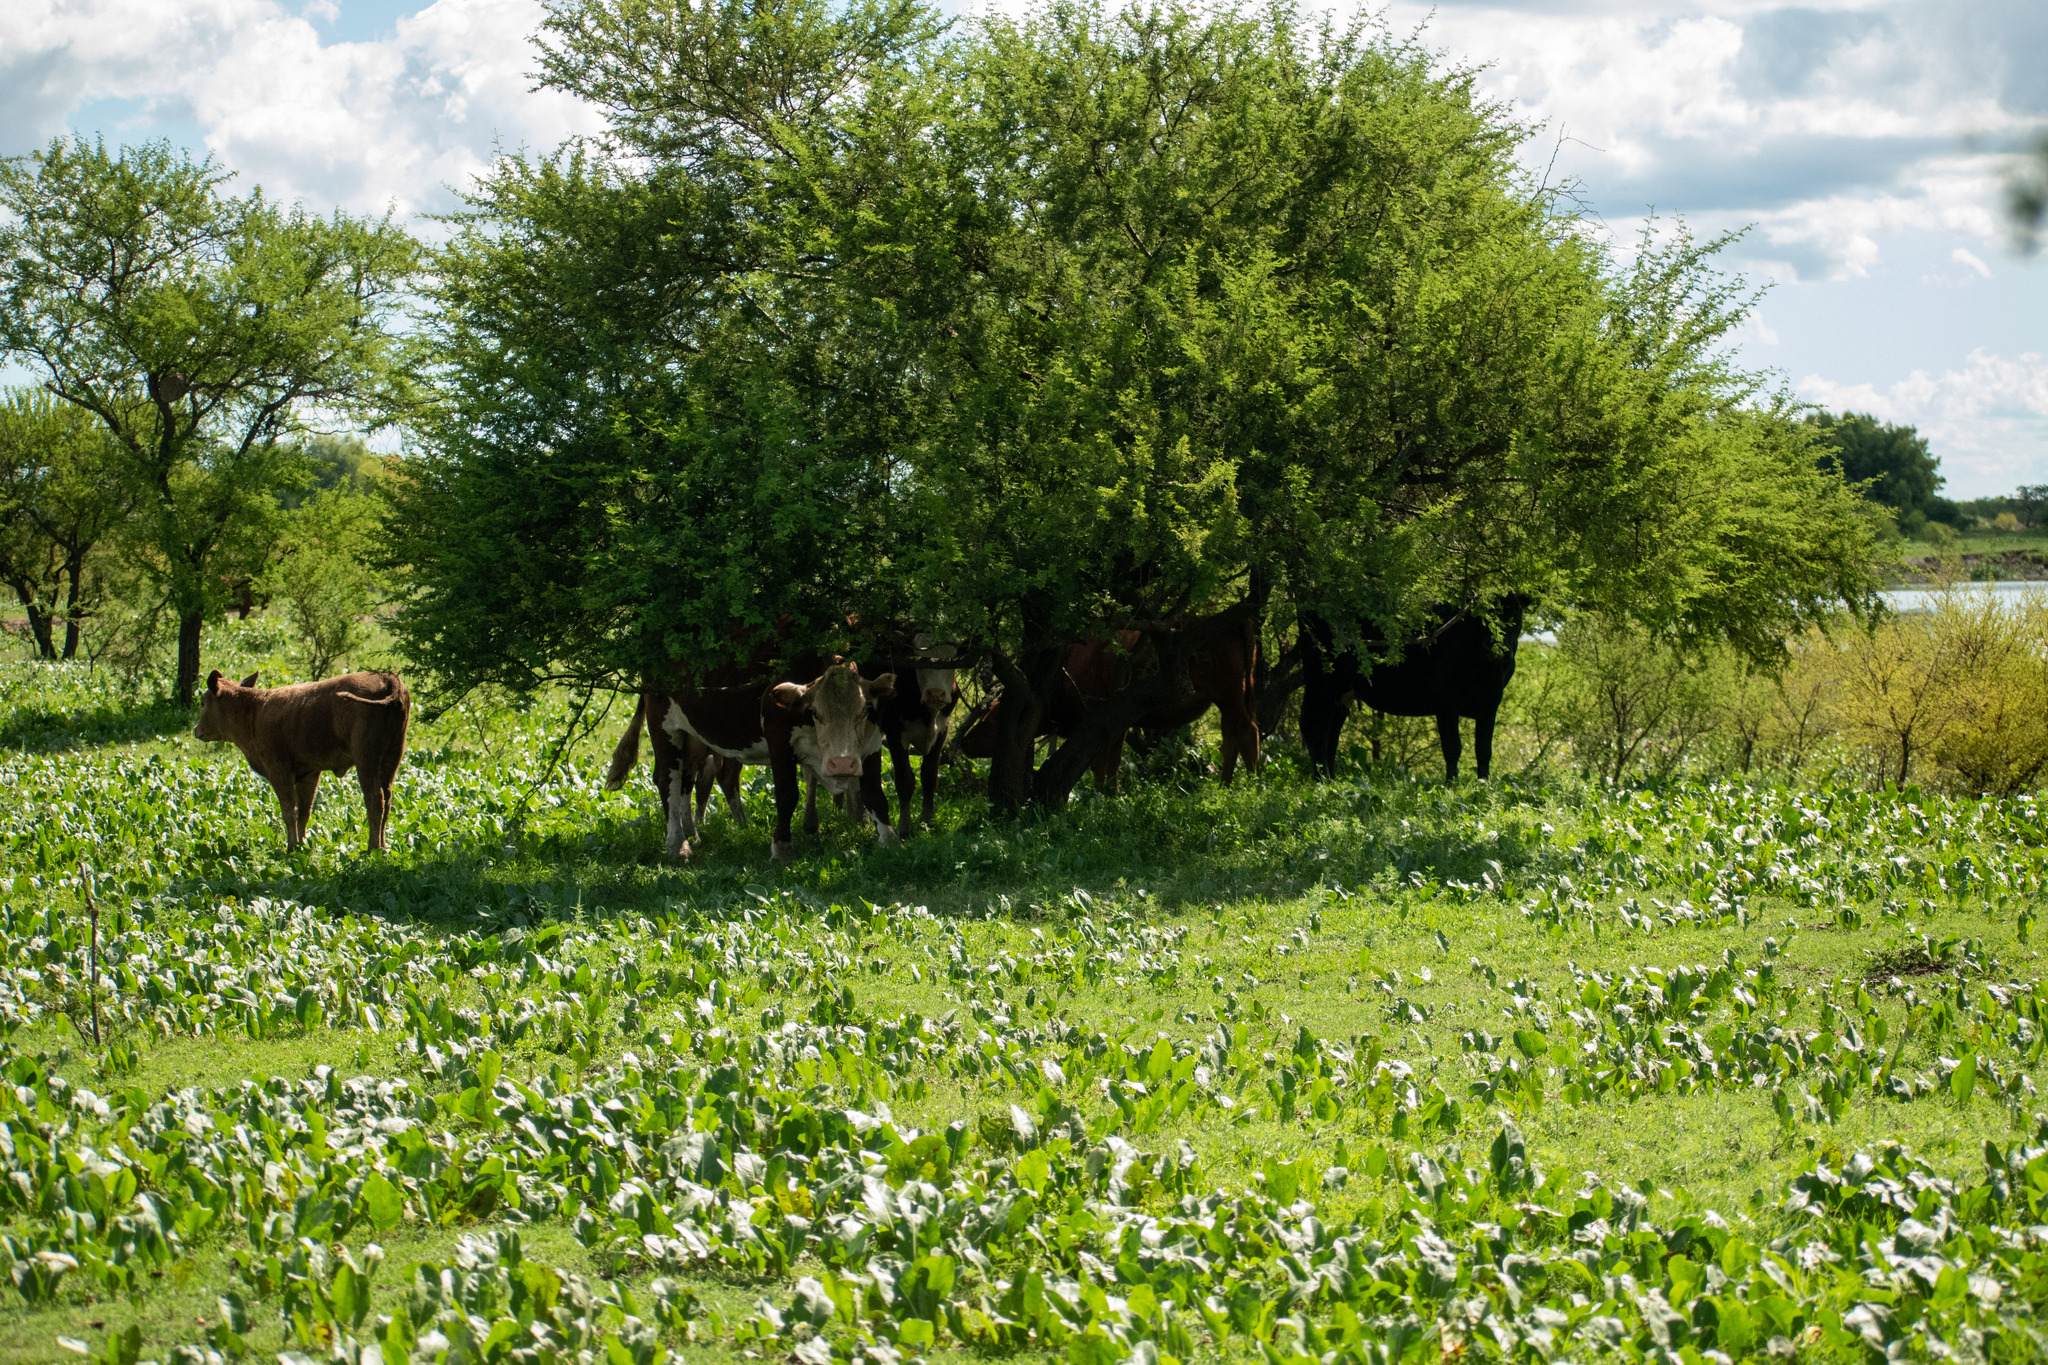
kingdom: Animalia
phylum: Chordata
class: Mammalia
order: Artiodactyla
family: Bovidae
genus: Bos
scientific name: Bos taurus
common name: Domesticated cattle
